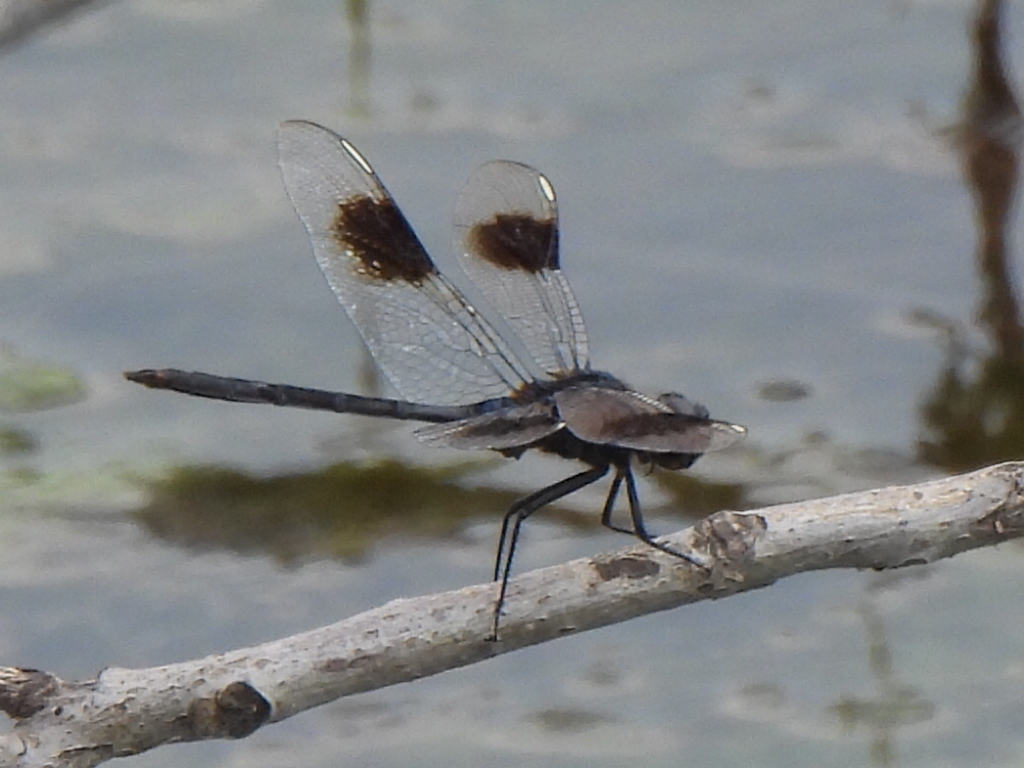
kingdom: Animalia
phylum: Arthropoda
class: Insecta
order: Odonata
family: Libellulidae
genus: Brachymesia
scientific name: Brachymesia gravida
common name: Four-spotted pennant
